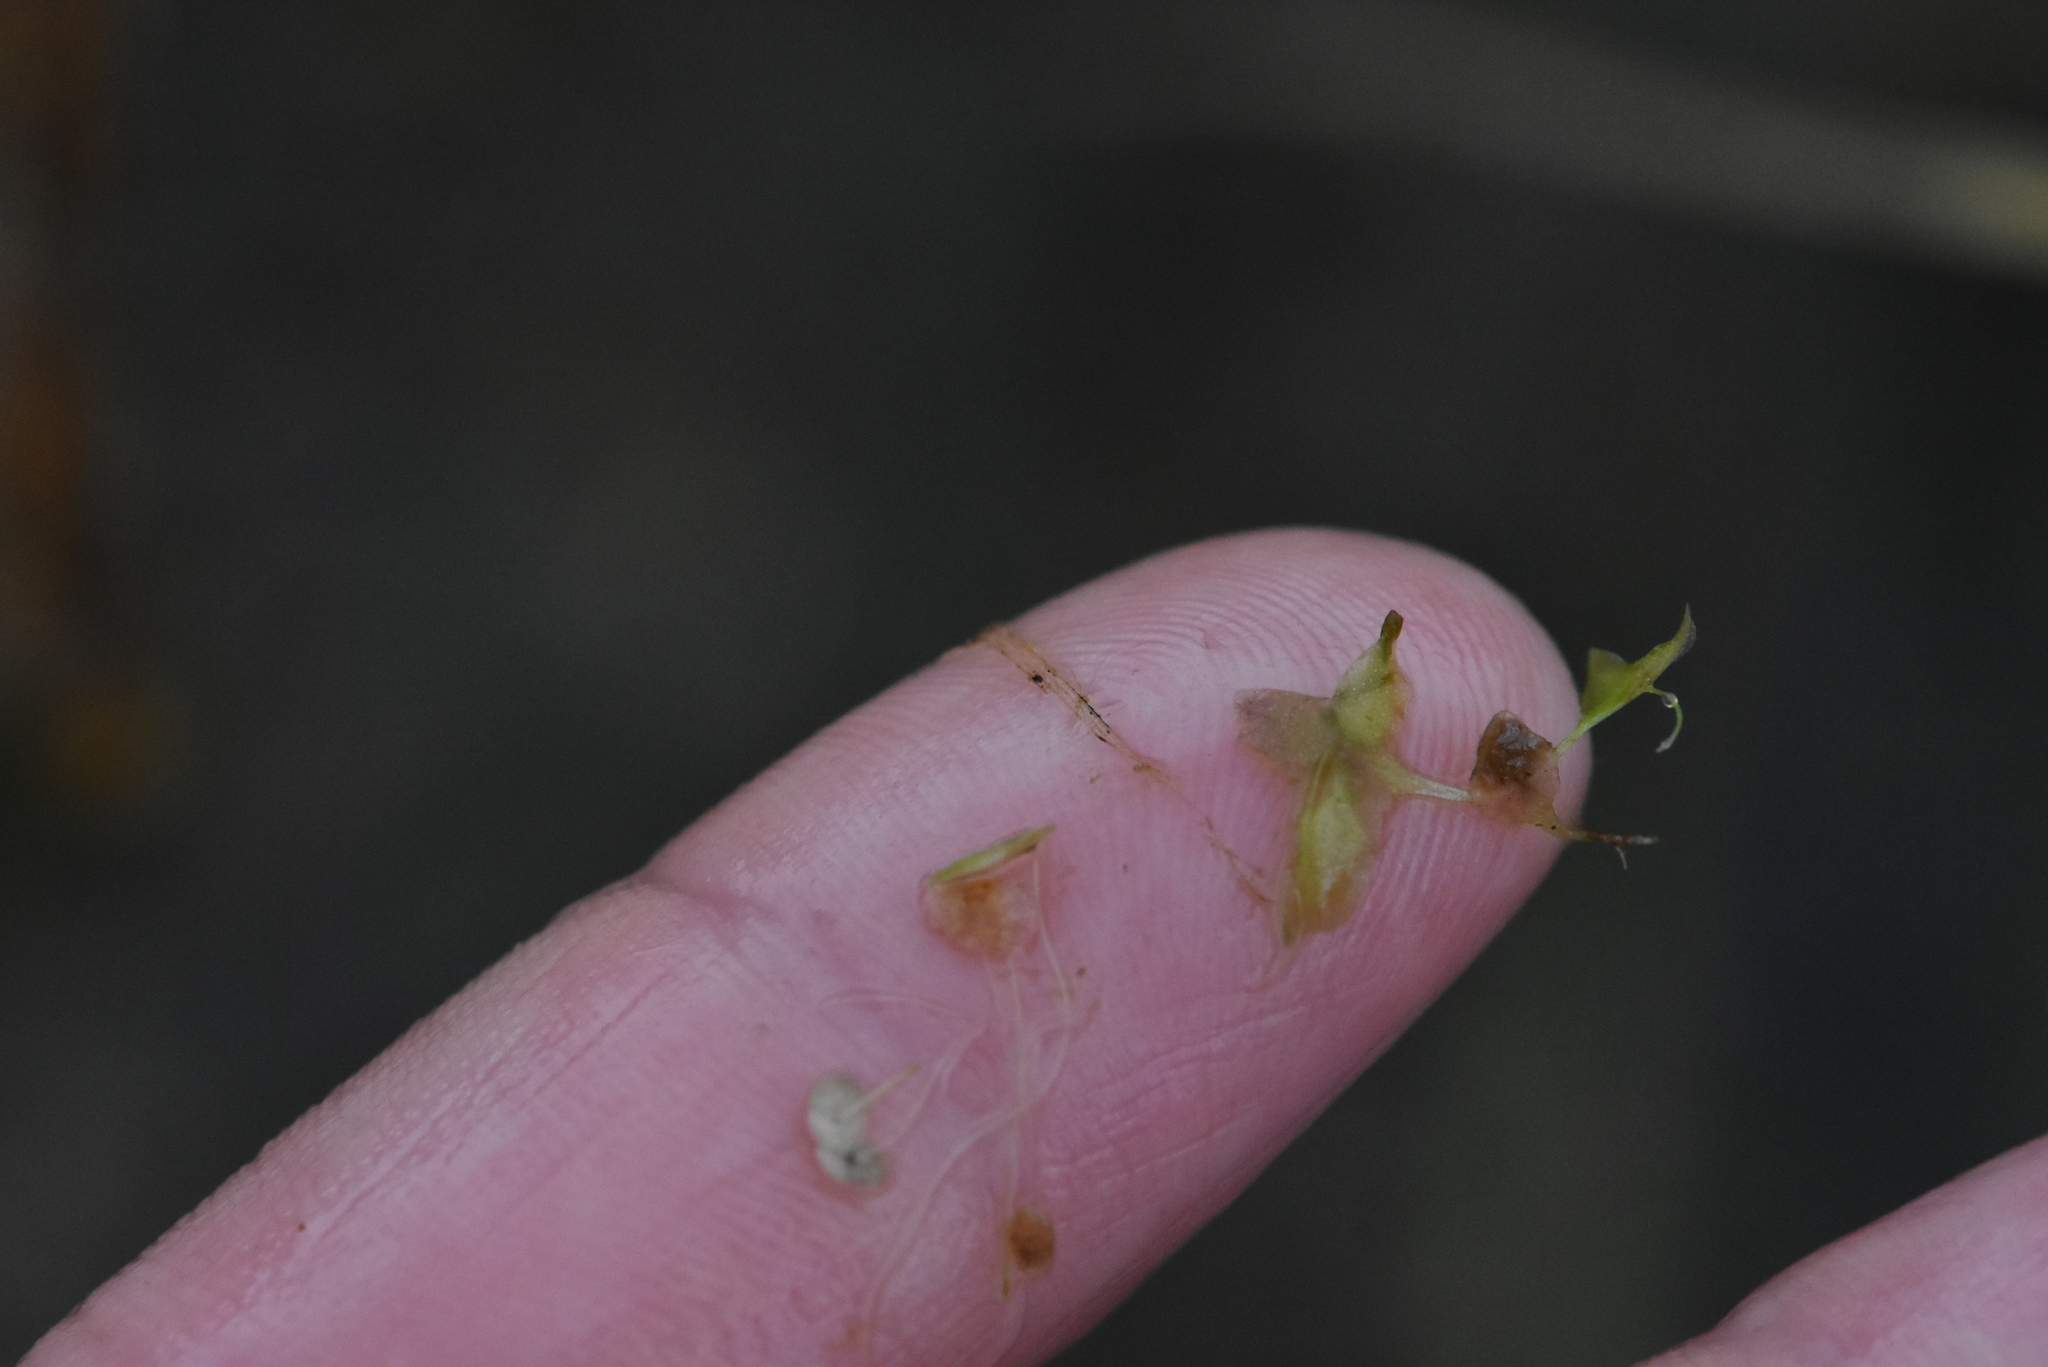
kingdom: Plantae
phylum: Tracheophyta
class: Liliopsida
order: Alismatales
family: Araceae
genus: Lemna
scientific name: Lemna trisulca
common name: Ivy-leaved duckweed
